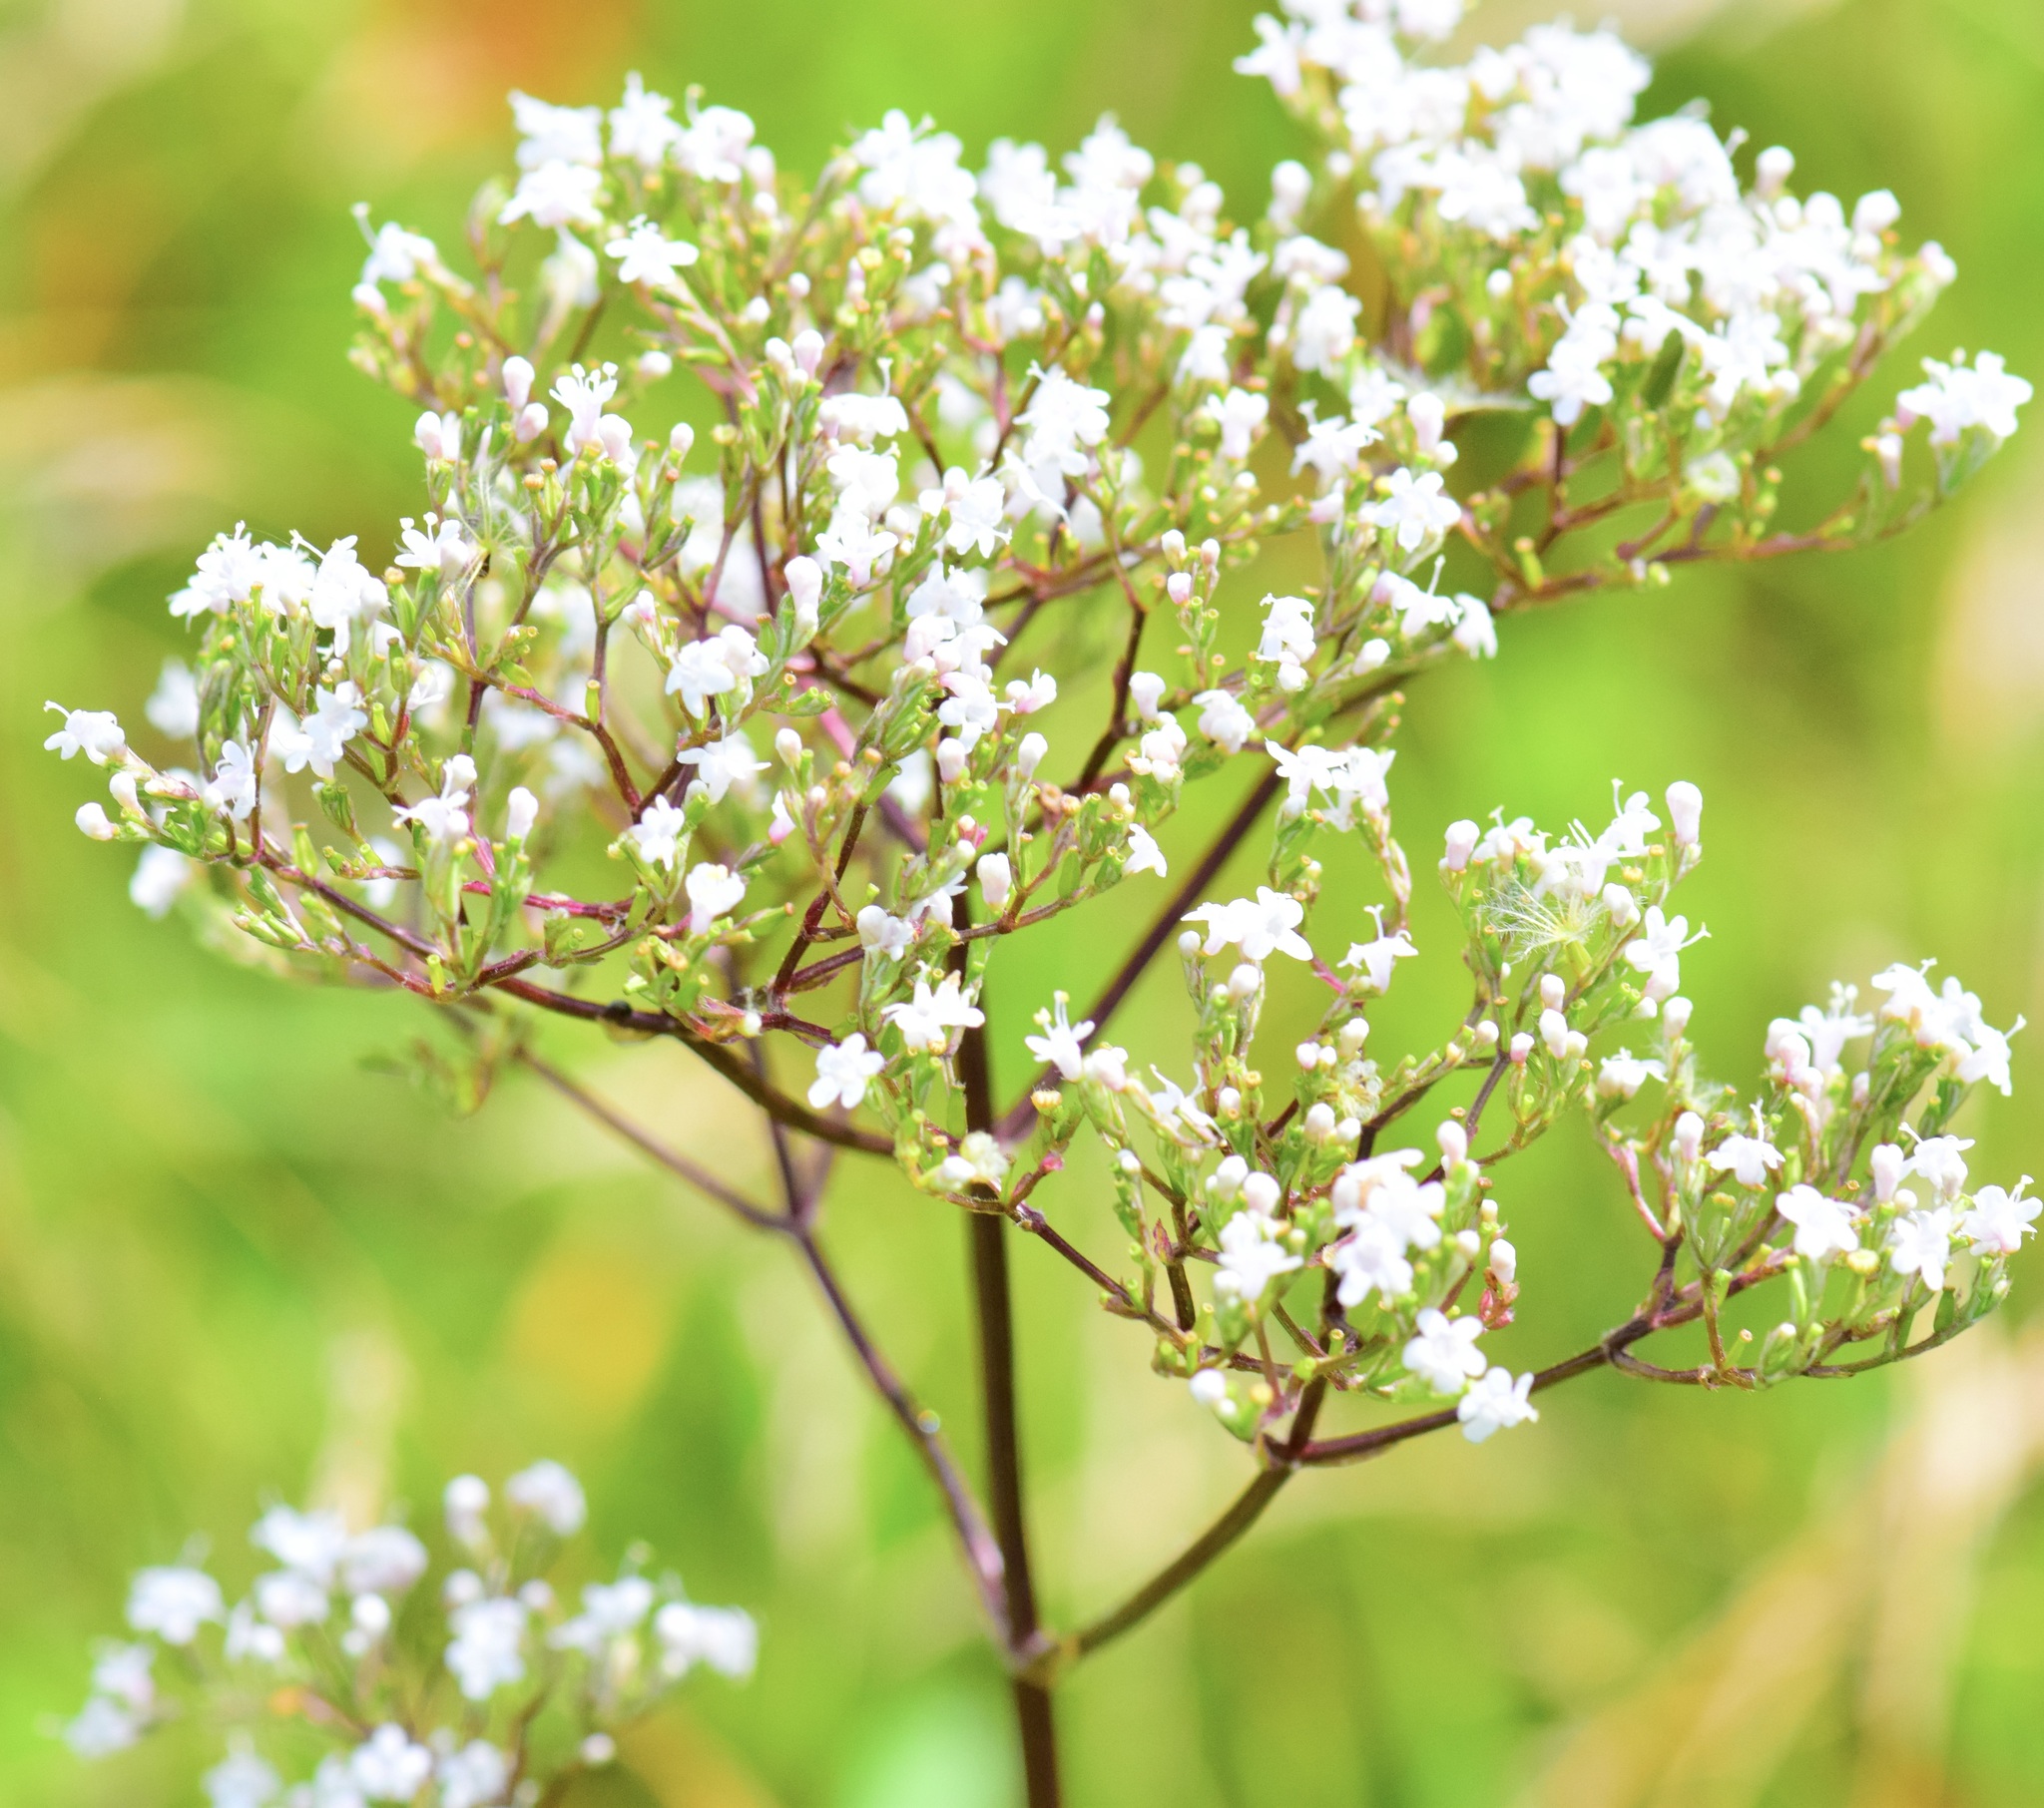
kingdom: Plantae
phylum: Tracheophyta
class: Magnoliopsida
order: Dipsacales
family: Caprifoliaceae
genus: Valeriana
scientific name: Valeriana officinalis
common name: Common valerian
